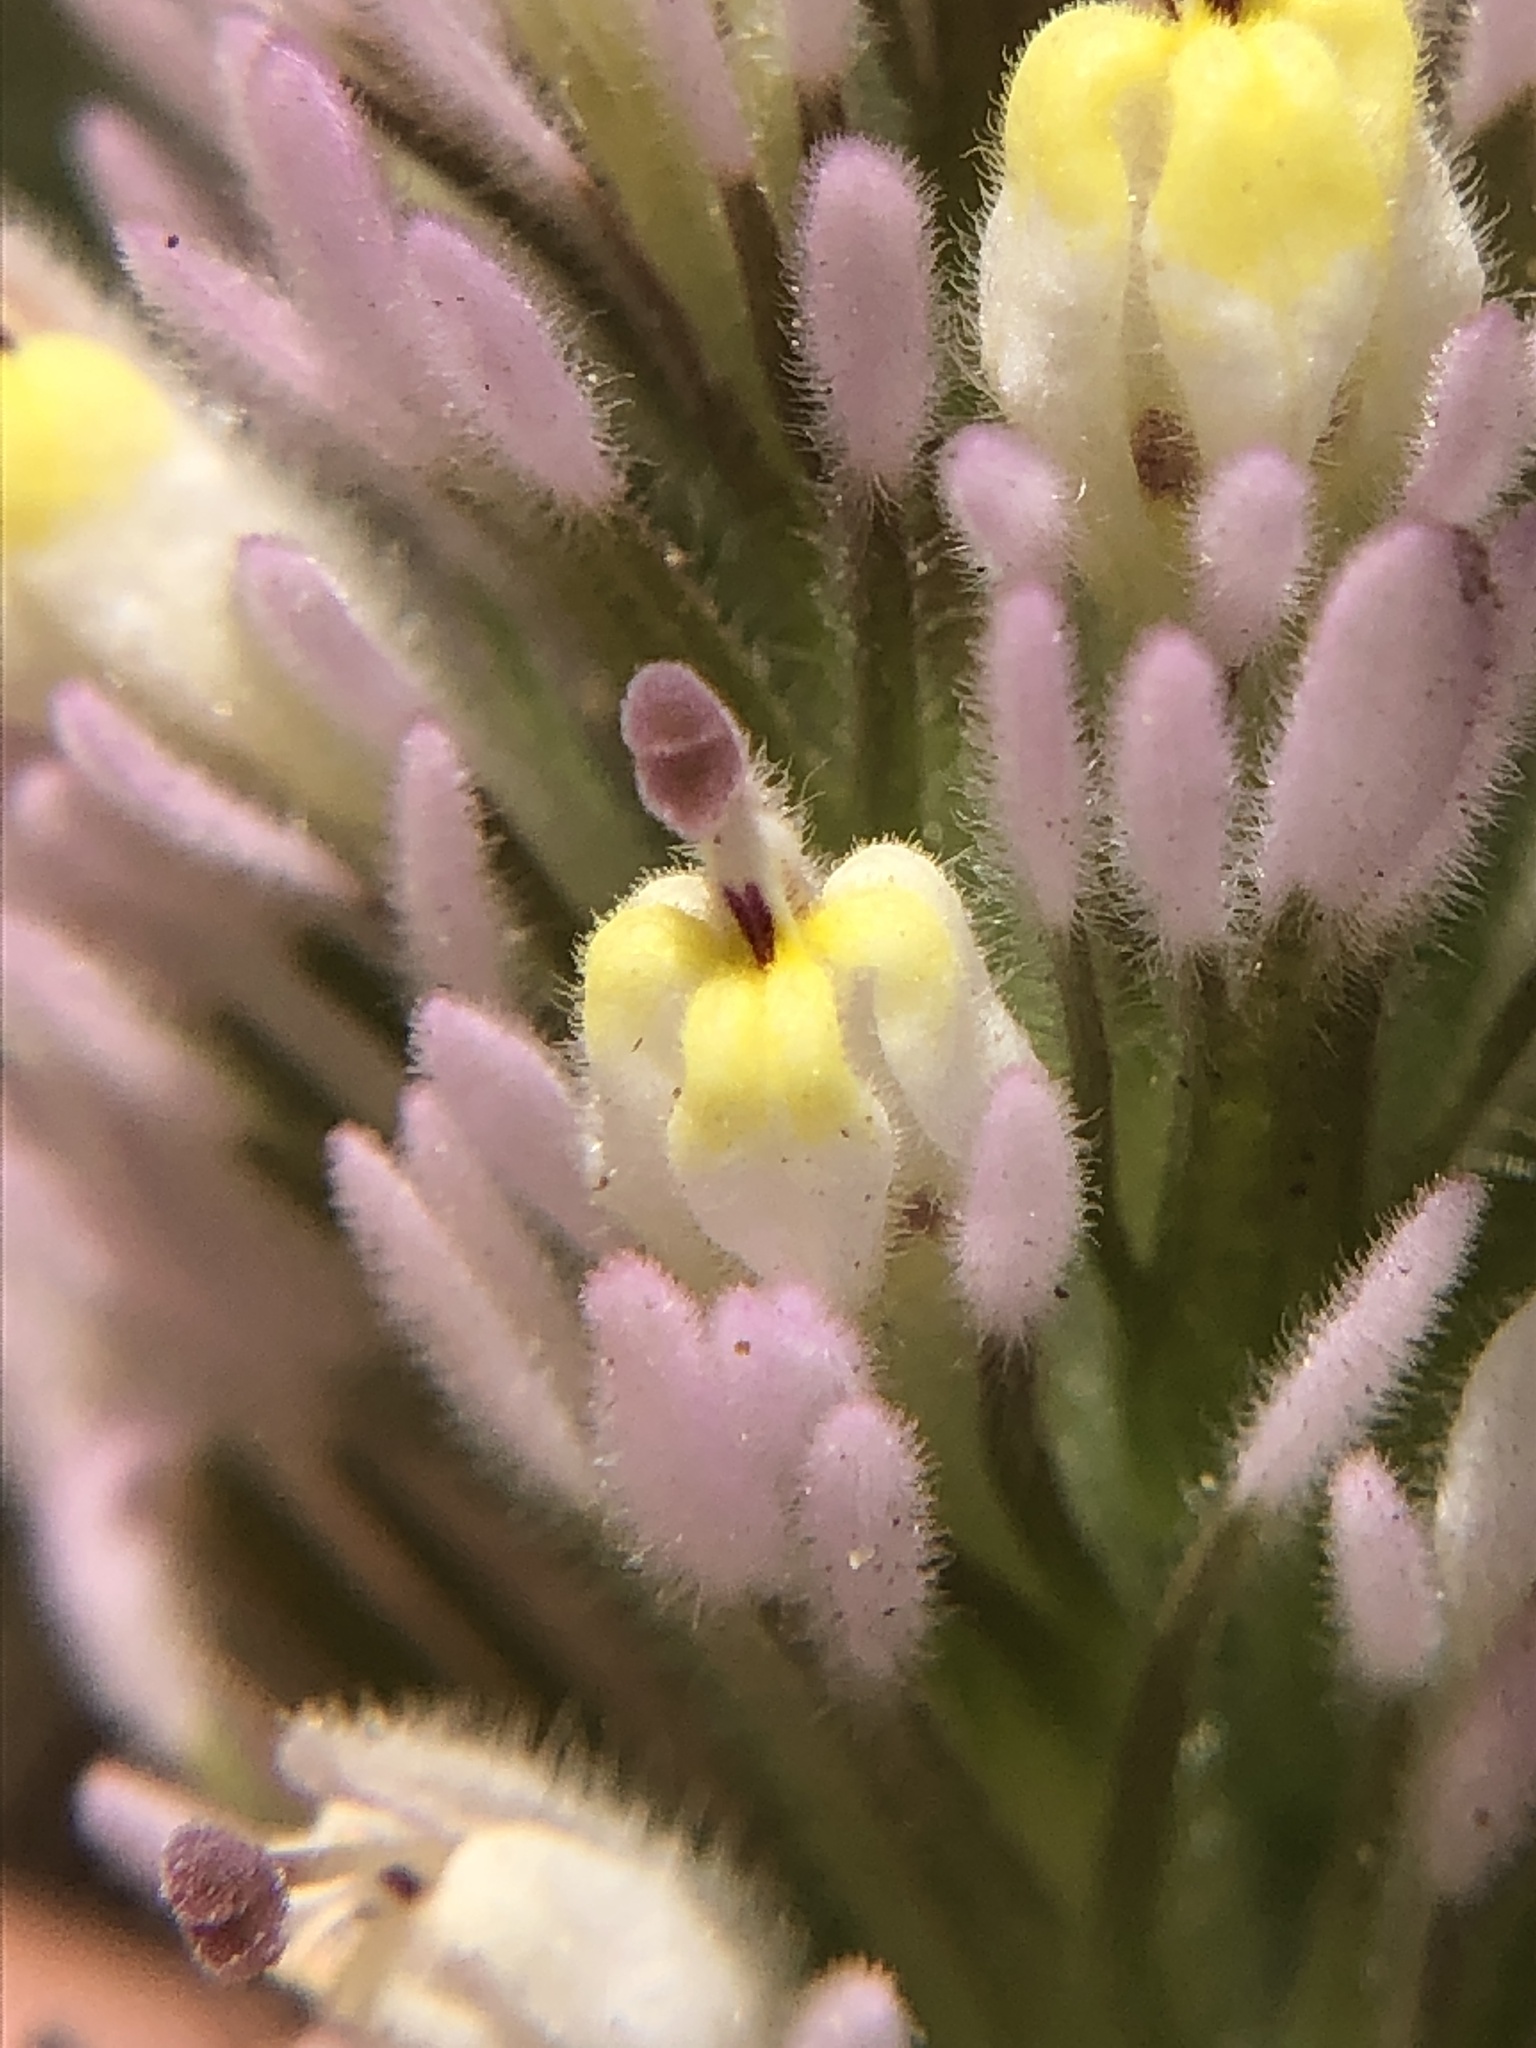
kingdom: Plantae
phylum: Tracheophyta
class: Magnoliopsida
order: Lamiales
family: Orobanchaceae
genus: Castilleja
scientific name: Castilleja lineariloba
